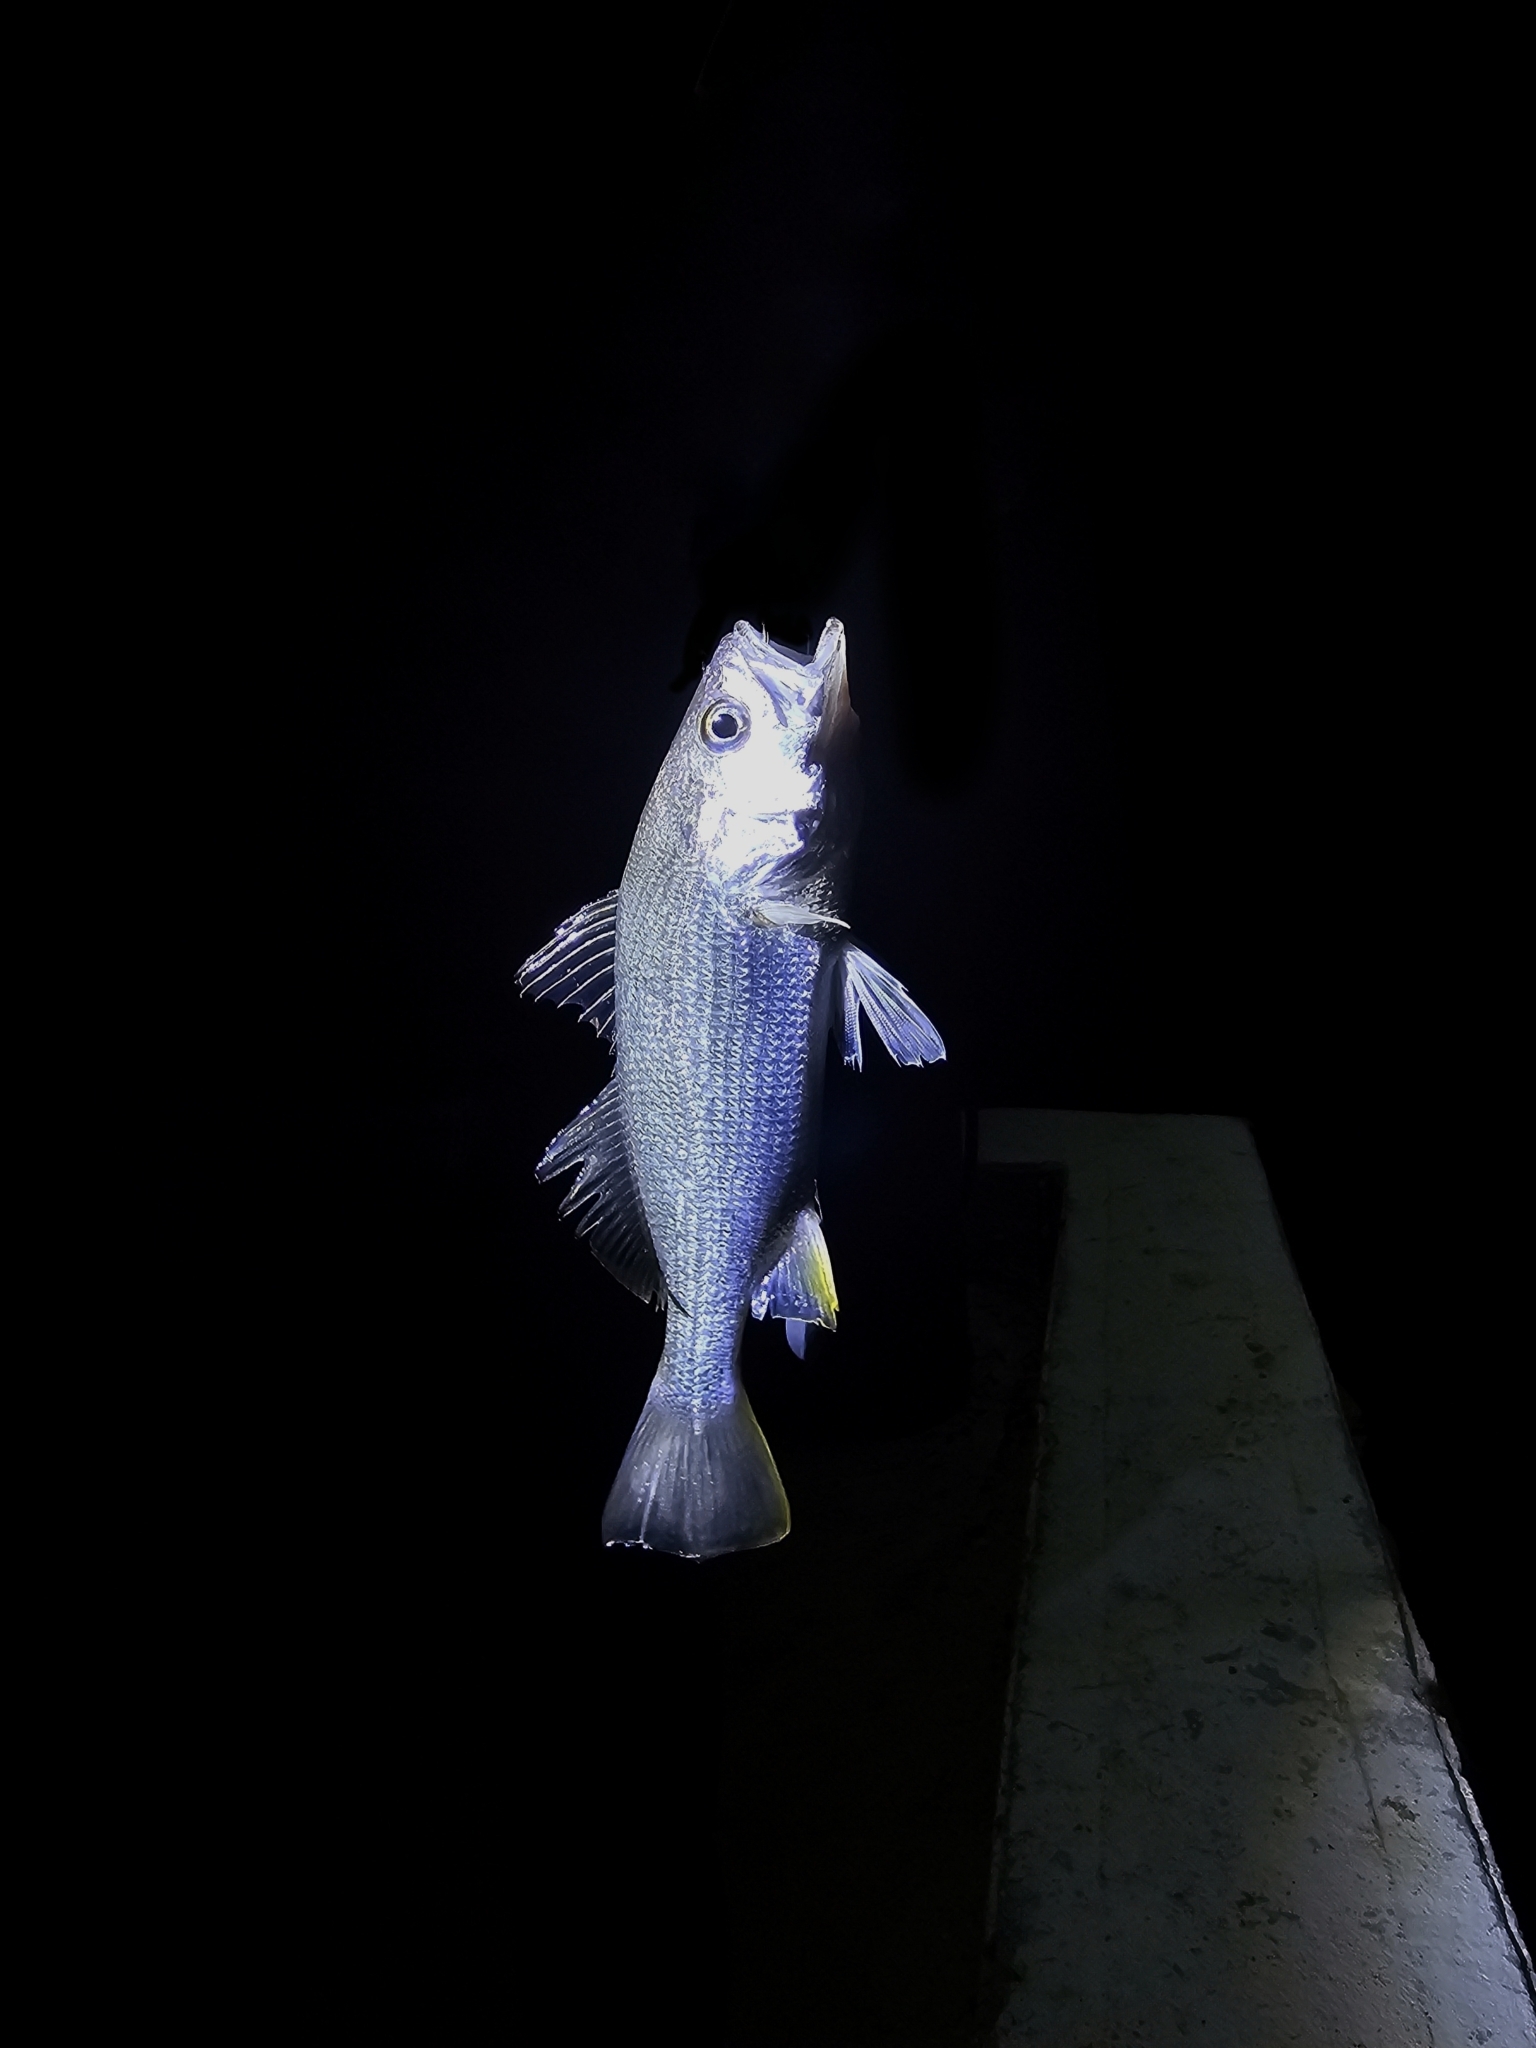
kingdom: Animalia
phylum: Chordata
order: Perciformes
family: Sciaenidae
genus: Bairdiella
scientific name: Bairdiella chrysoura
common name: Silver perch
